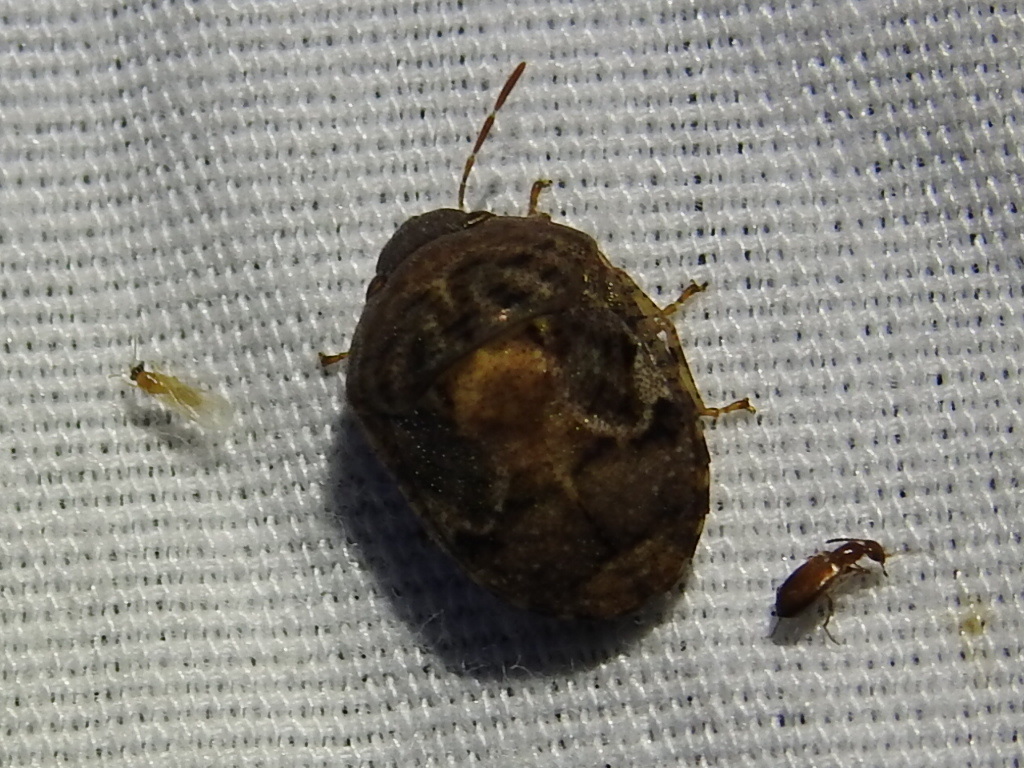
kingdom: Animalia
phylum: Arthropoda
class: Insecta
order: Hemiptera
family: Scutelleridae
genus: Stethaulax
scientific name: Stethaulax marmoratus
